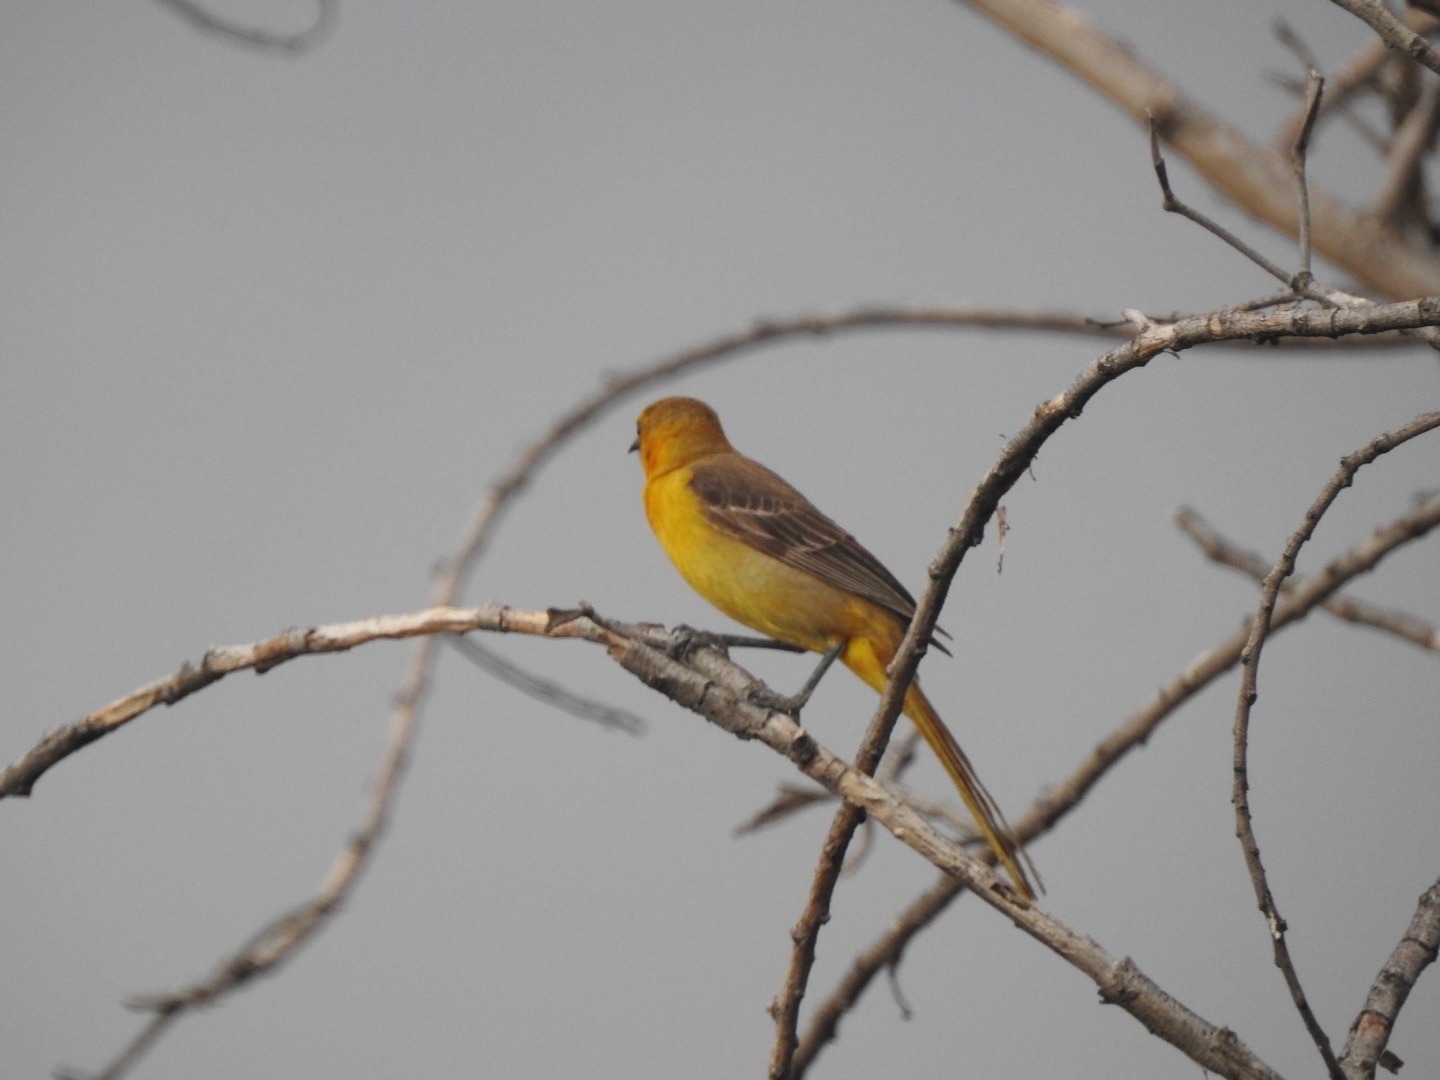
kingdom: Animalia
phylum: Chordata
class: Aves
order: Passeriformes
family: Icteridae
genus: Icterus
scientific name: Icterus cucullatus
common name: Hooded oriole
